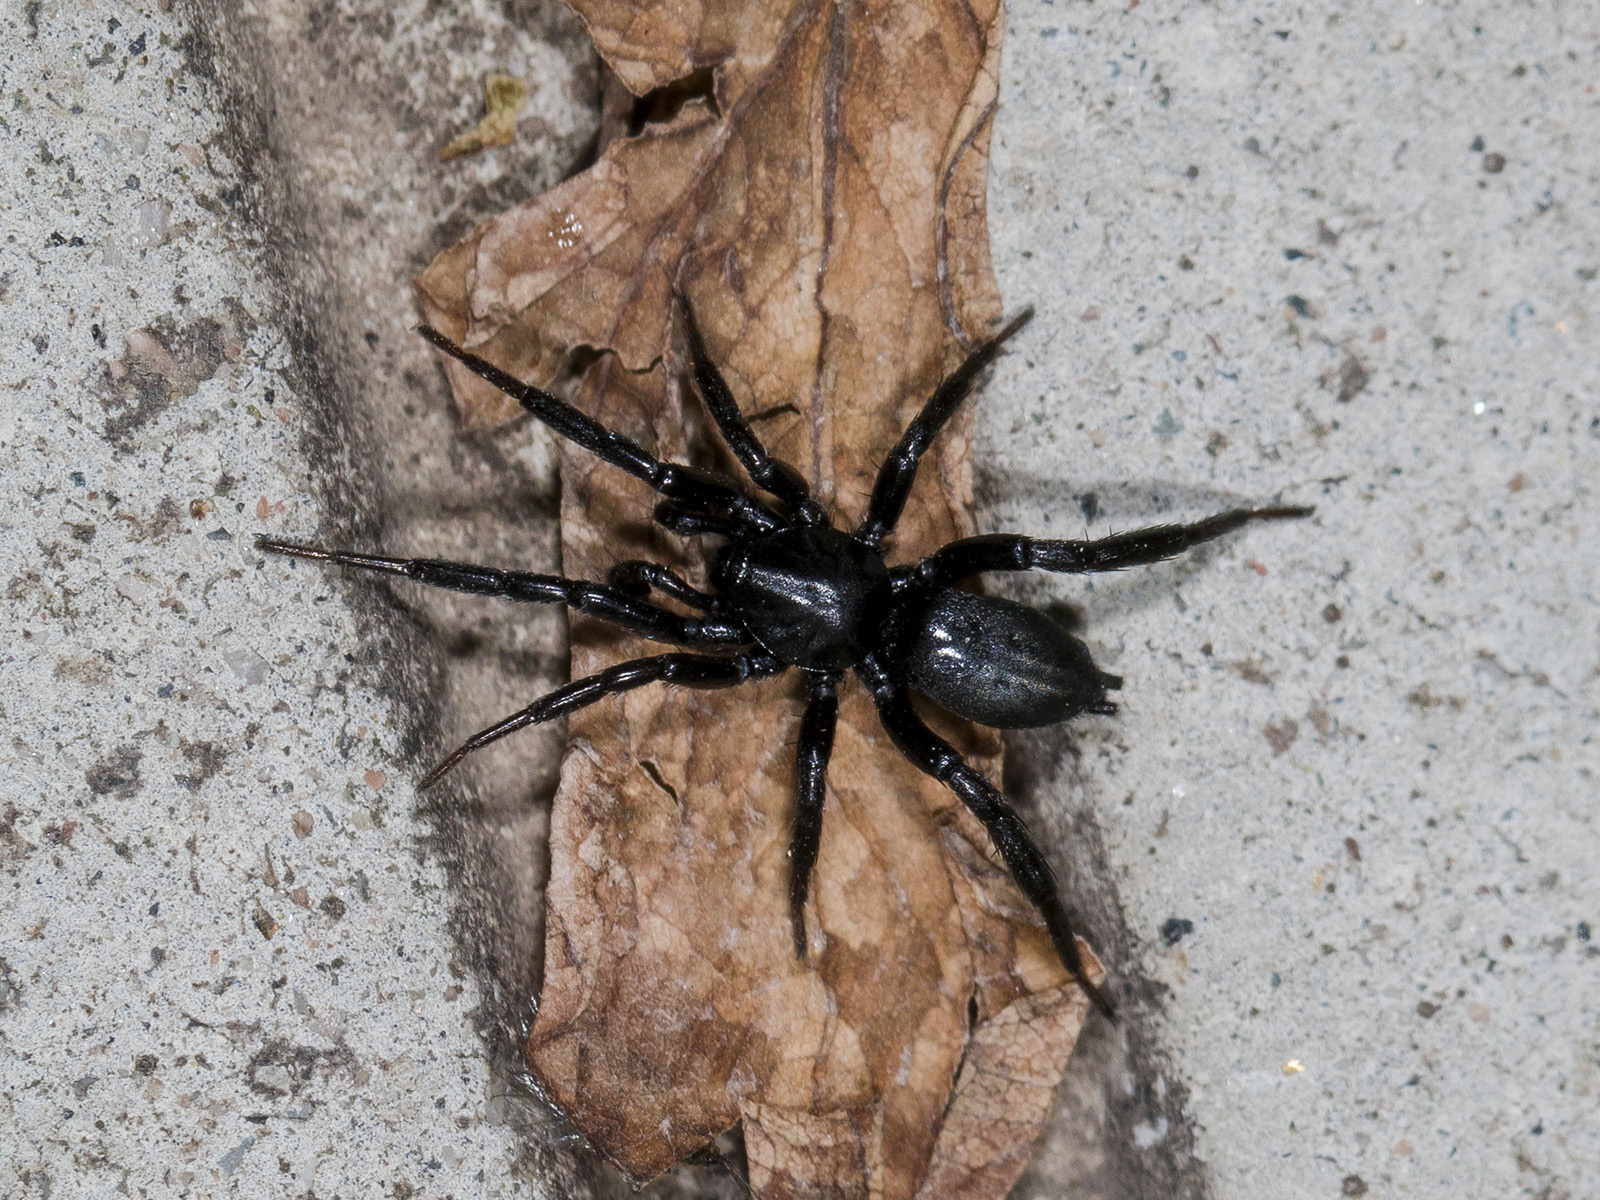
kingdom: Animalia
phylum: Arthropoda
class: Arachnida
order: Araneae
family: Gnaphosidae
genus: Drassyllus
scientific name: Drassyllus praeficus
